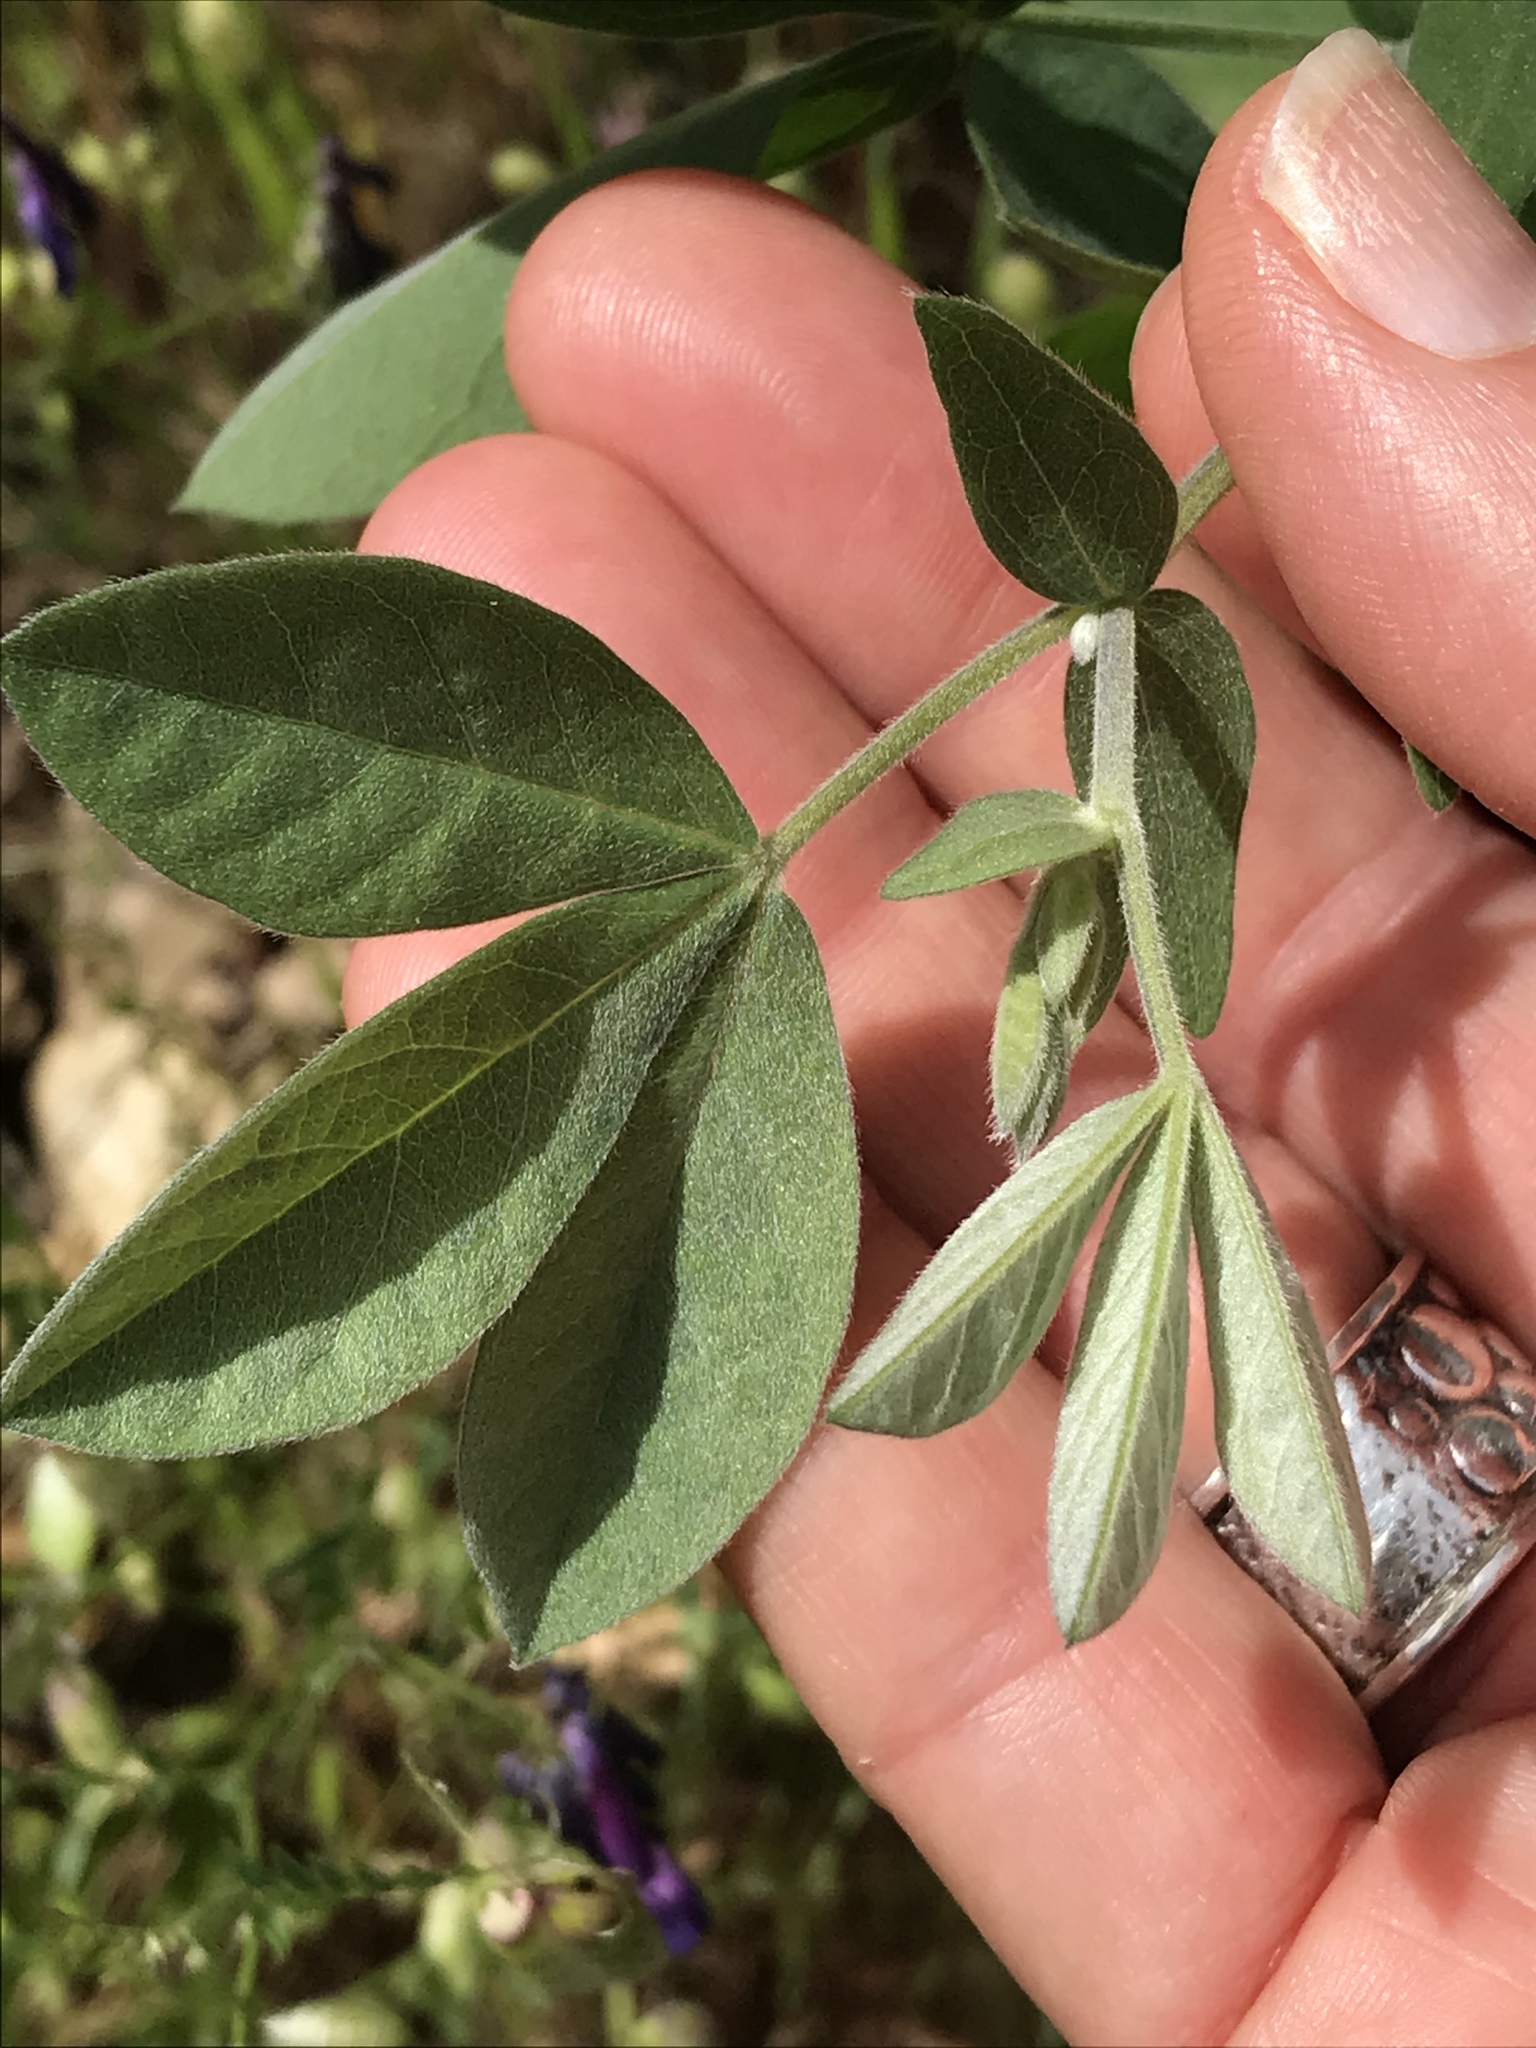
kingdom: Plantae
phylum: Tracheophyta
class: Magnoliopsida
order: Fabales
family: Fabaceae
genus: Thermopsis
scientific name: Thermopsis californica
